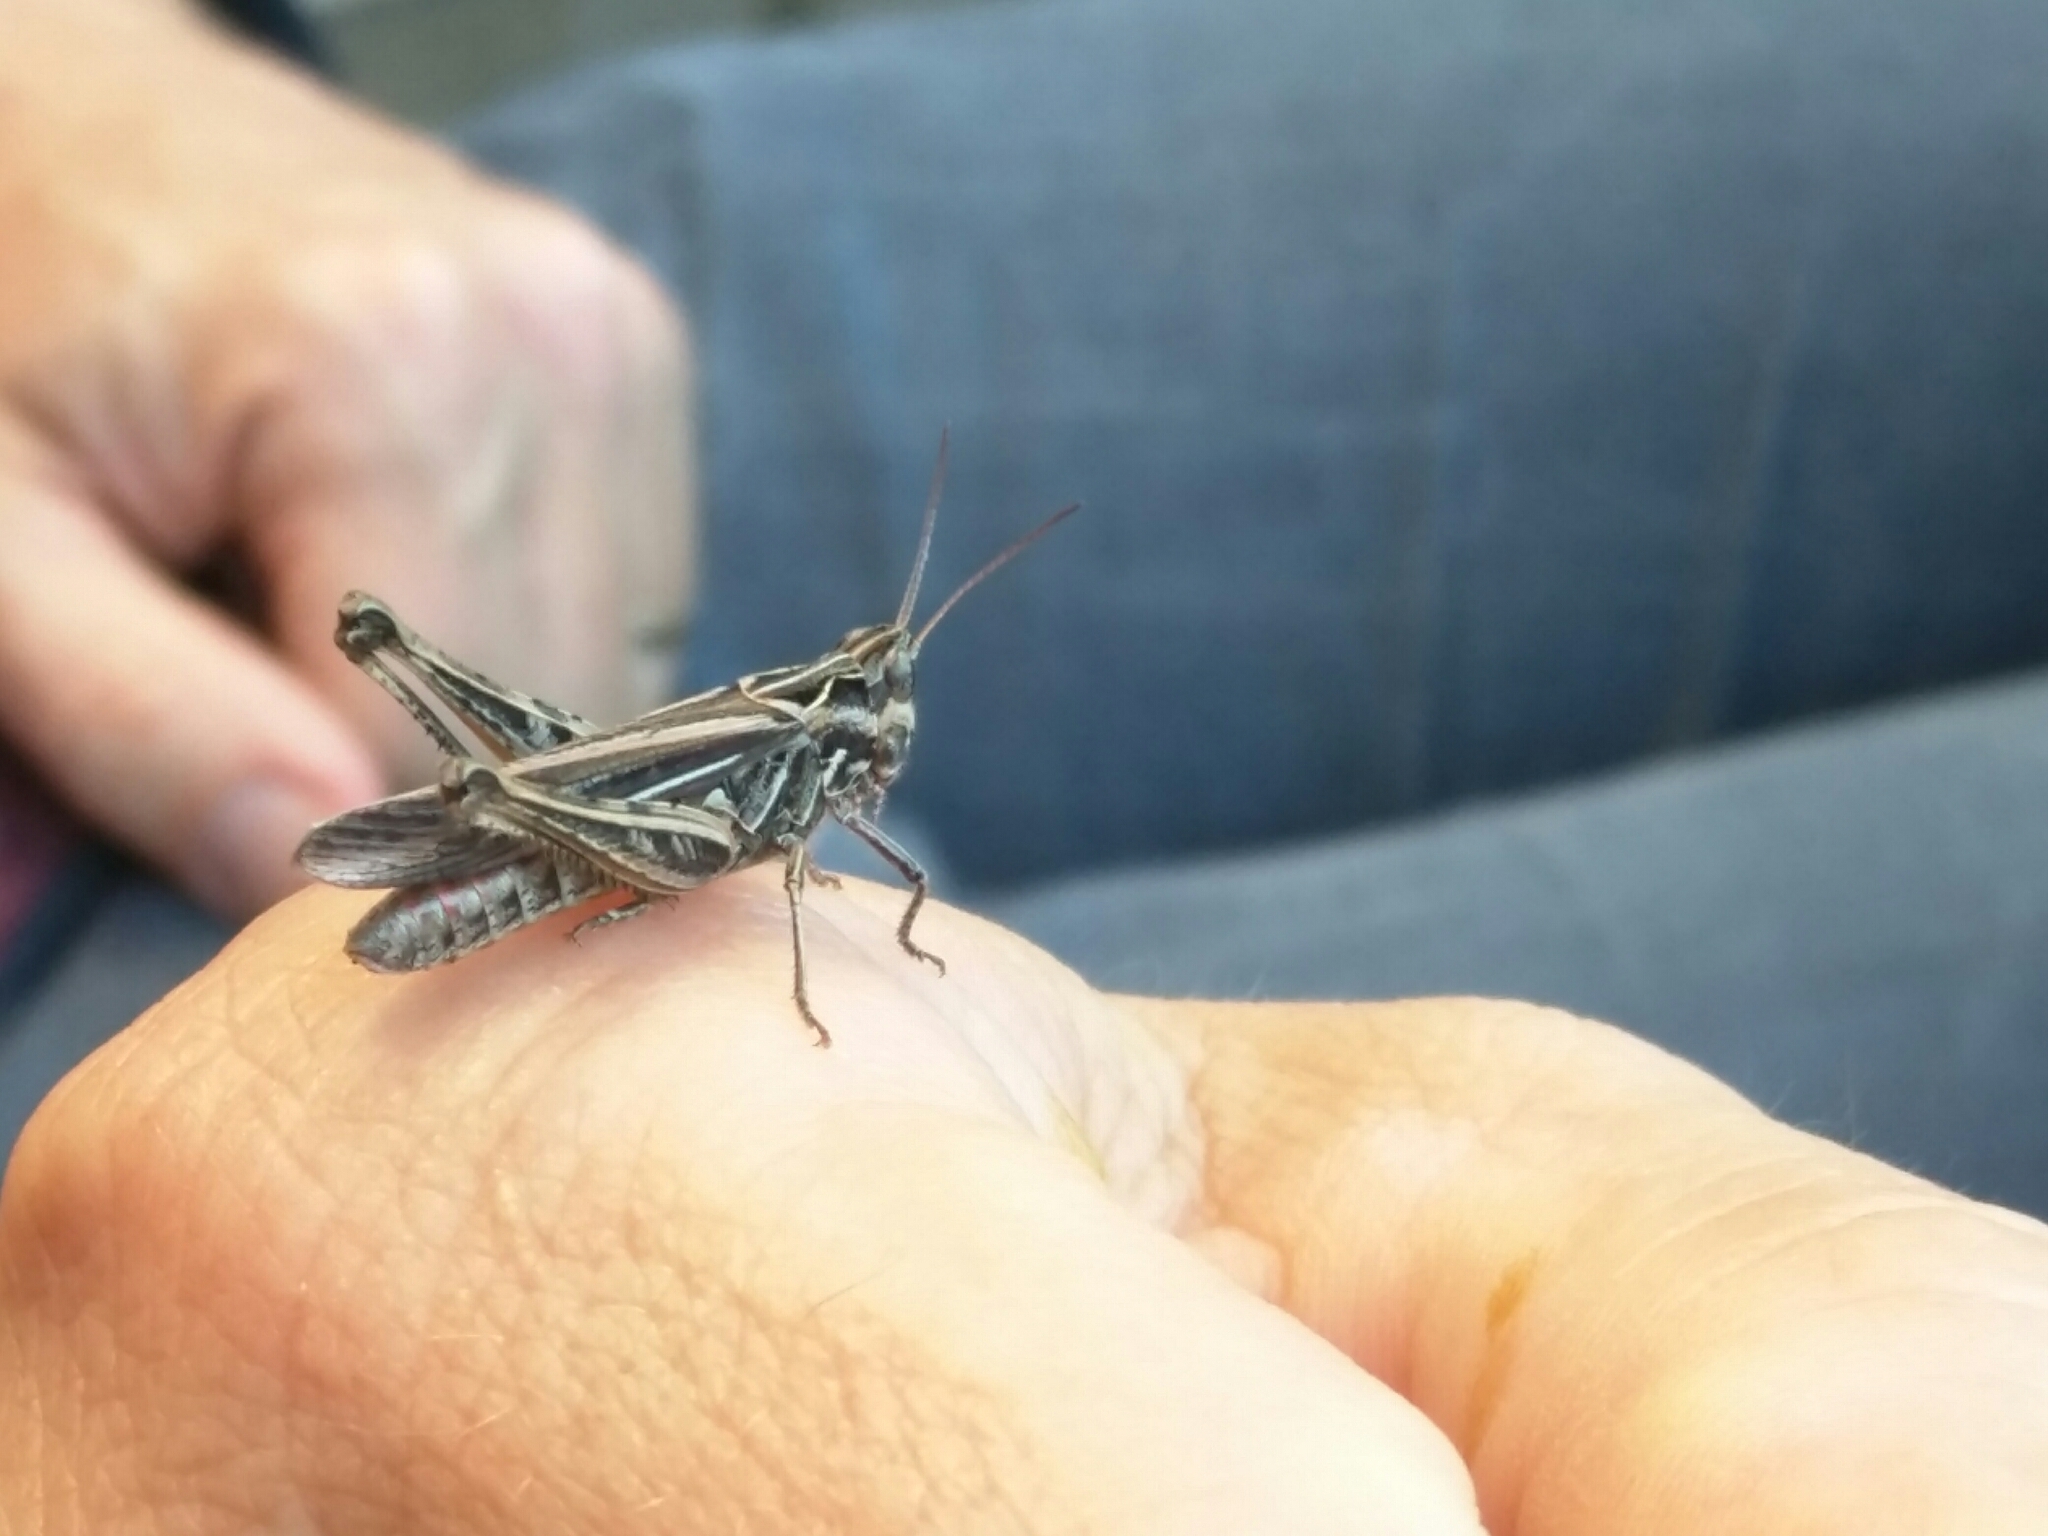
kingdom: Animalia
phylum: Arthropoda
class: Insecta
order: Orthoptera
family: Acrididae
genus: Chorthippus
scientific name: Chorthippus brunneus
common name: Field grasshopper
